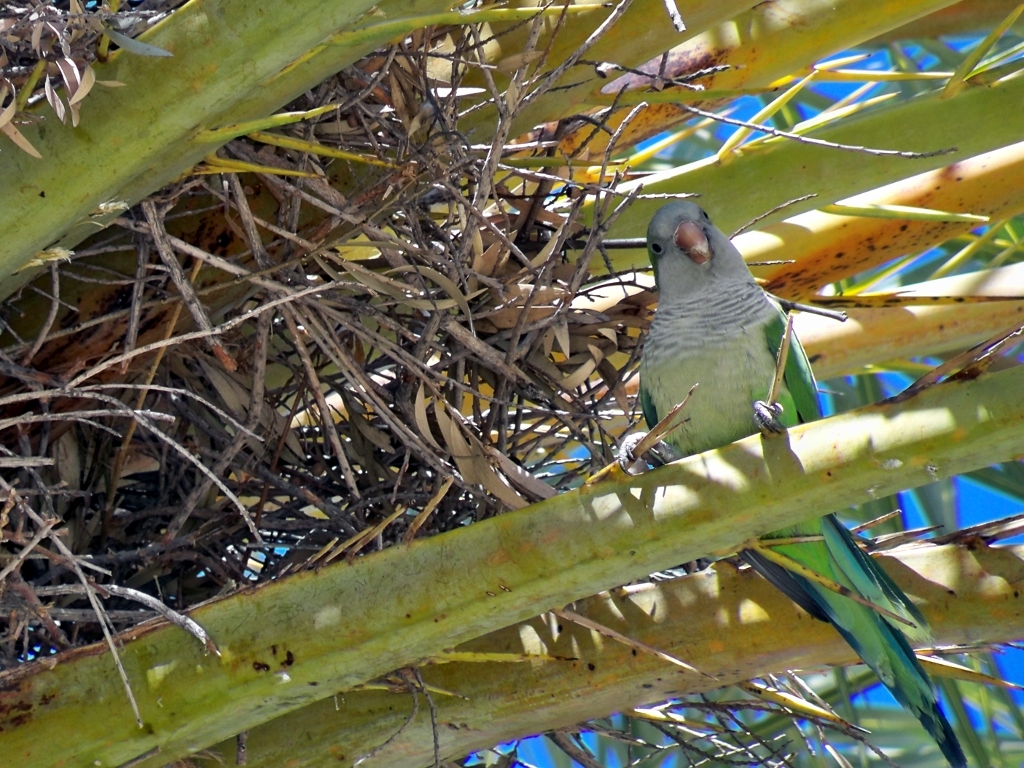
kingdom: Animalia
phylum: Chordata
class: Aves
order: Psittaciformes
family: Psittacidae
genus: Myiopsitta
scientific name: Myiopsitta monachus
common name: Monk parakeet
